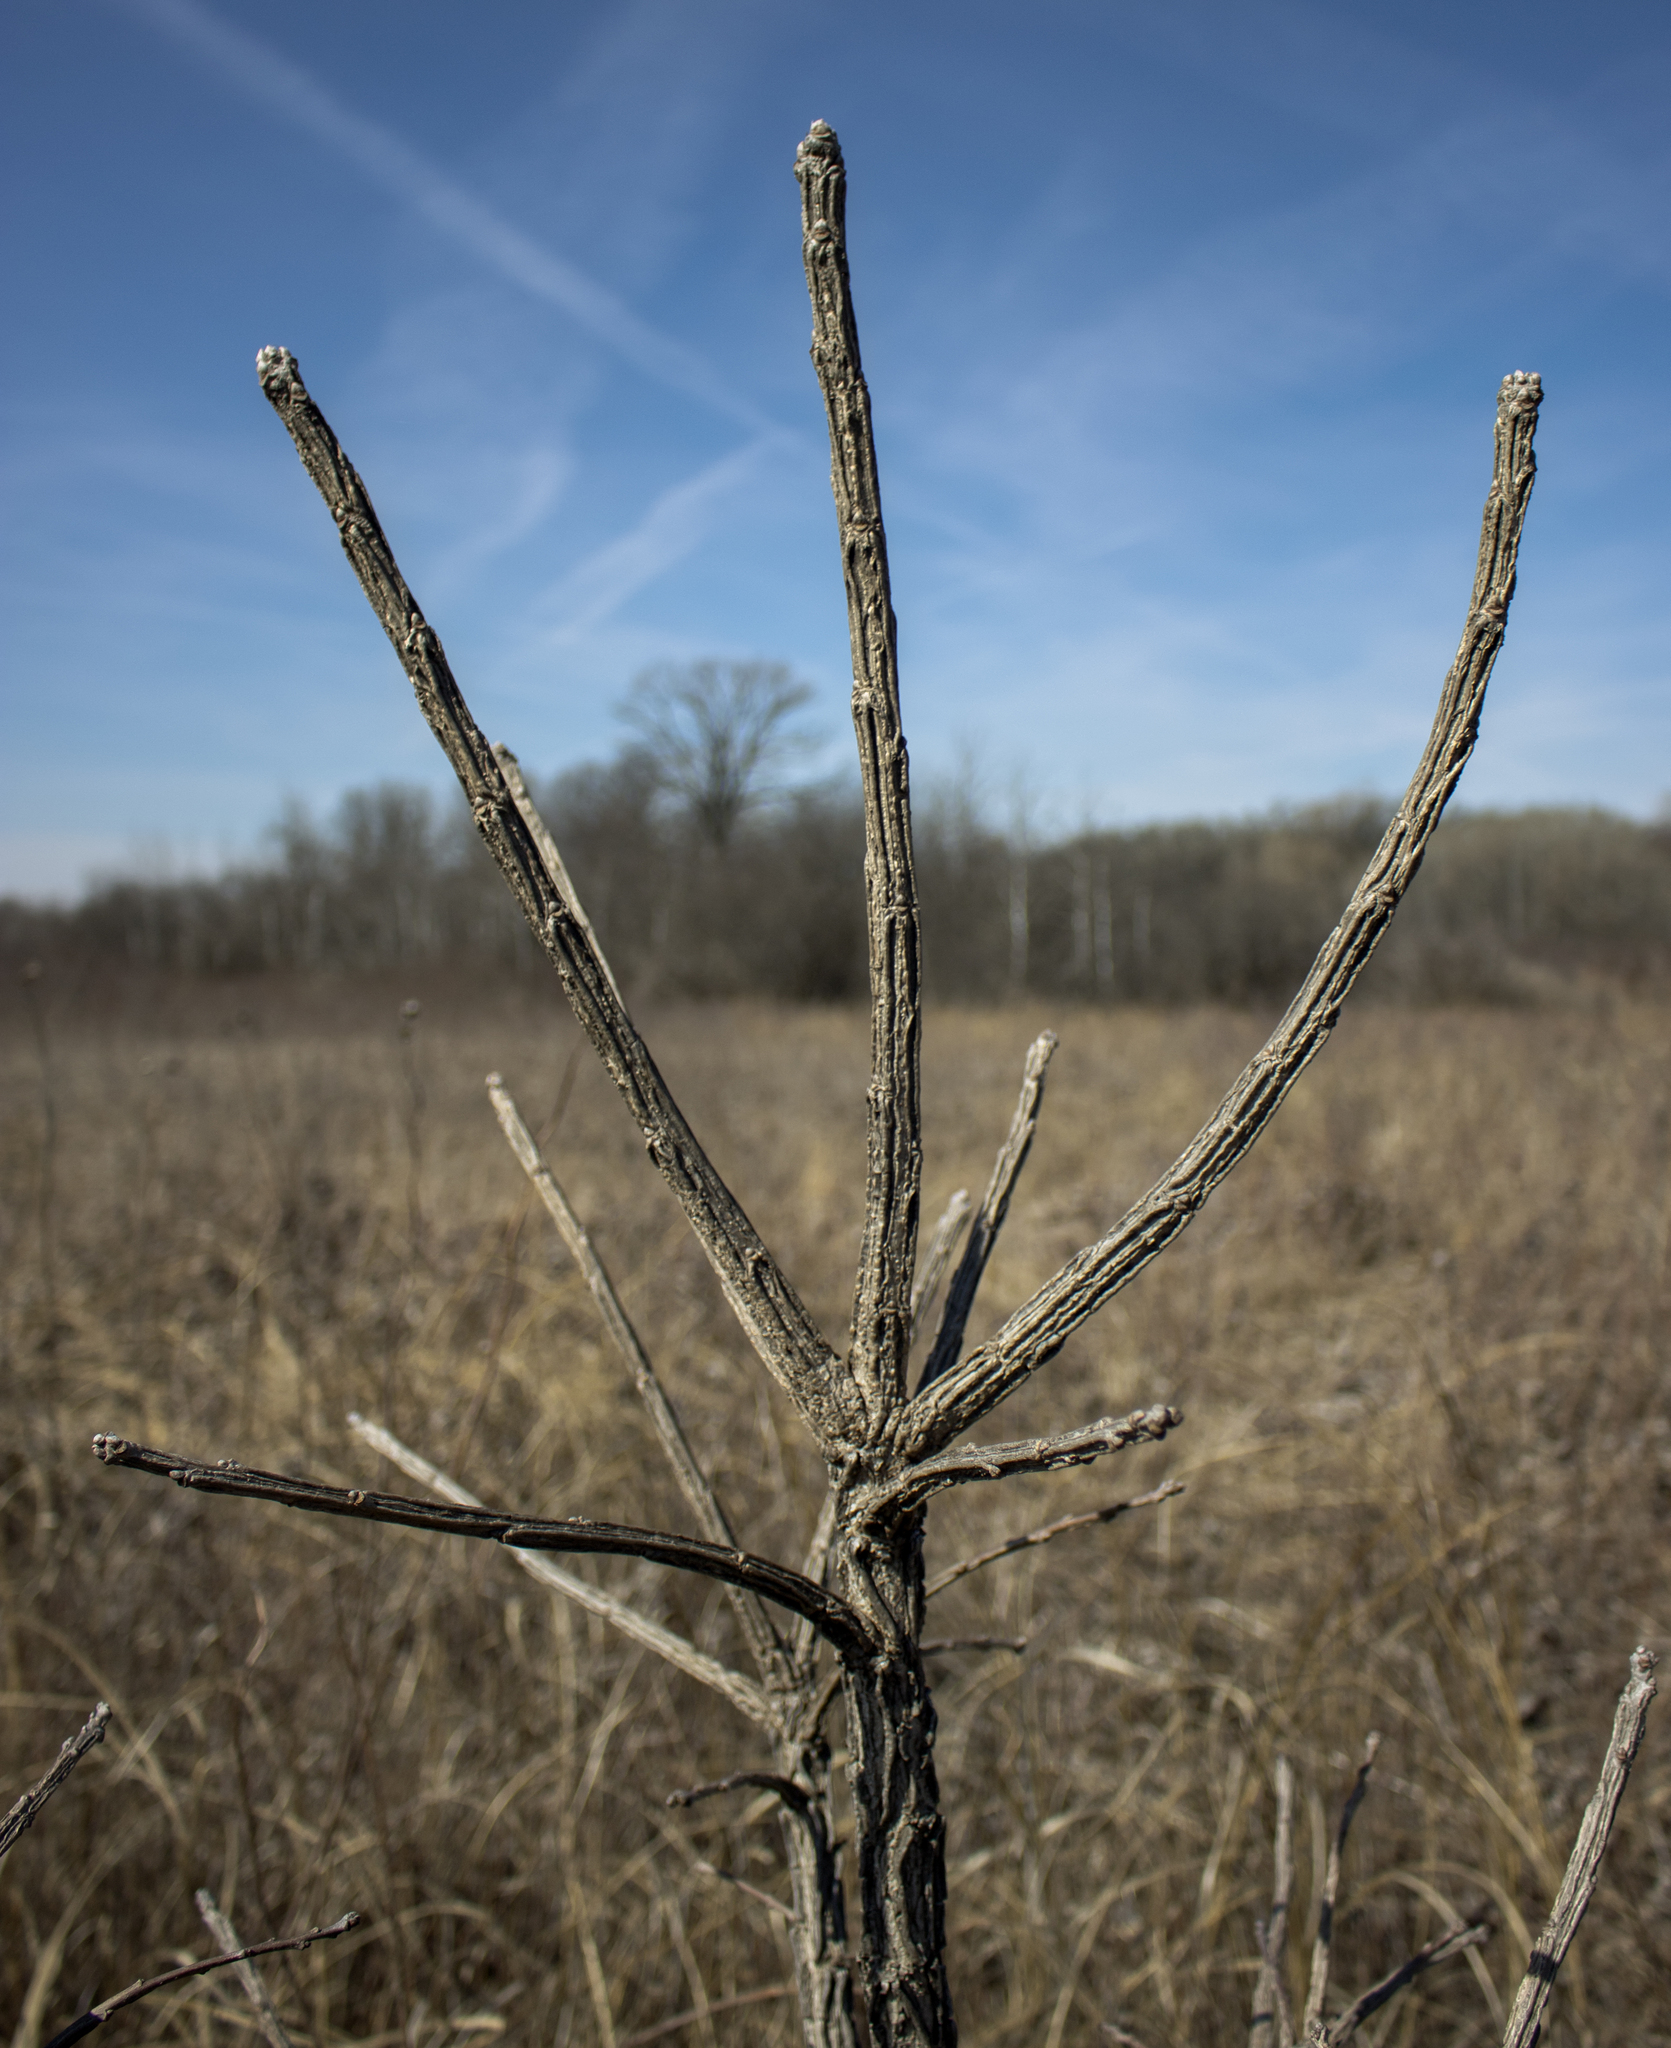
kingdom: Plantae
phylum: Tracheophyta
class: Magnoliopsida
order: Fagales
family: Fagaceae
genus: Quercus
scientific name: Quercus macrocarpa
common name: Bur oak
